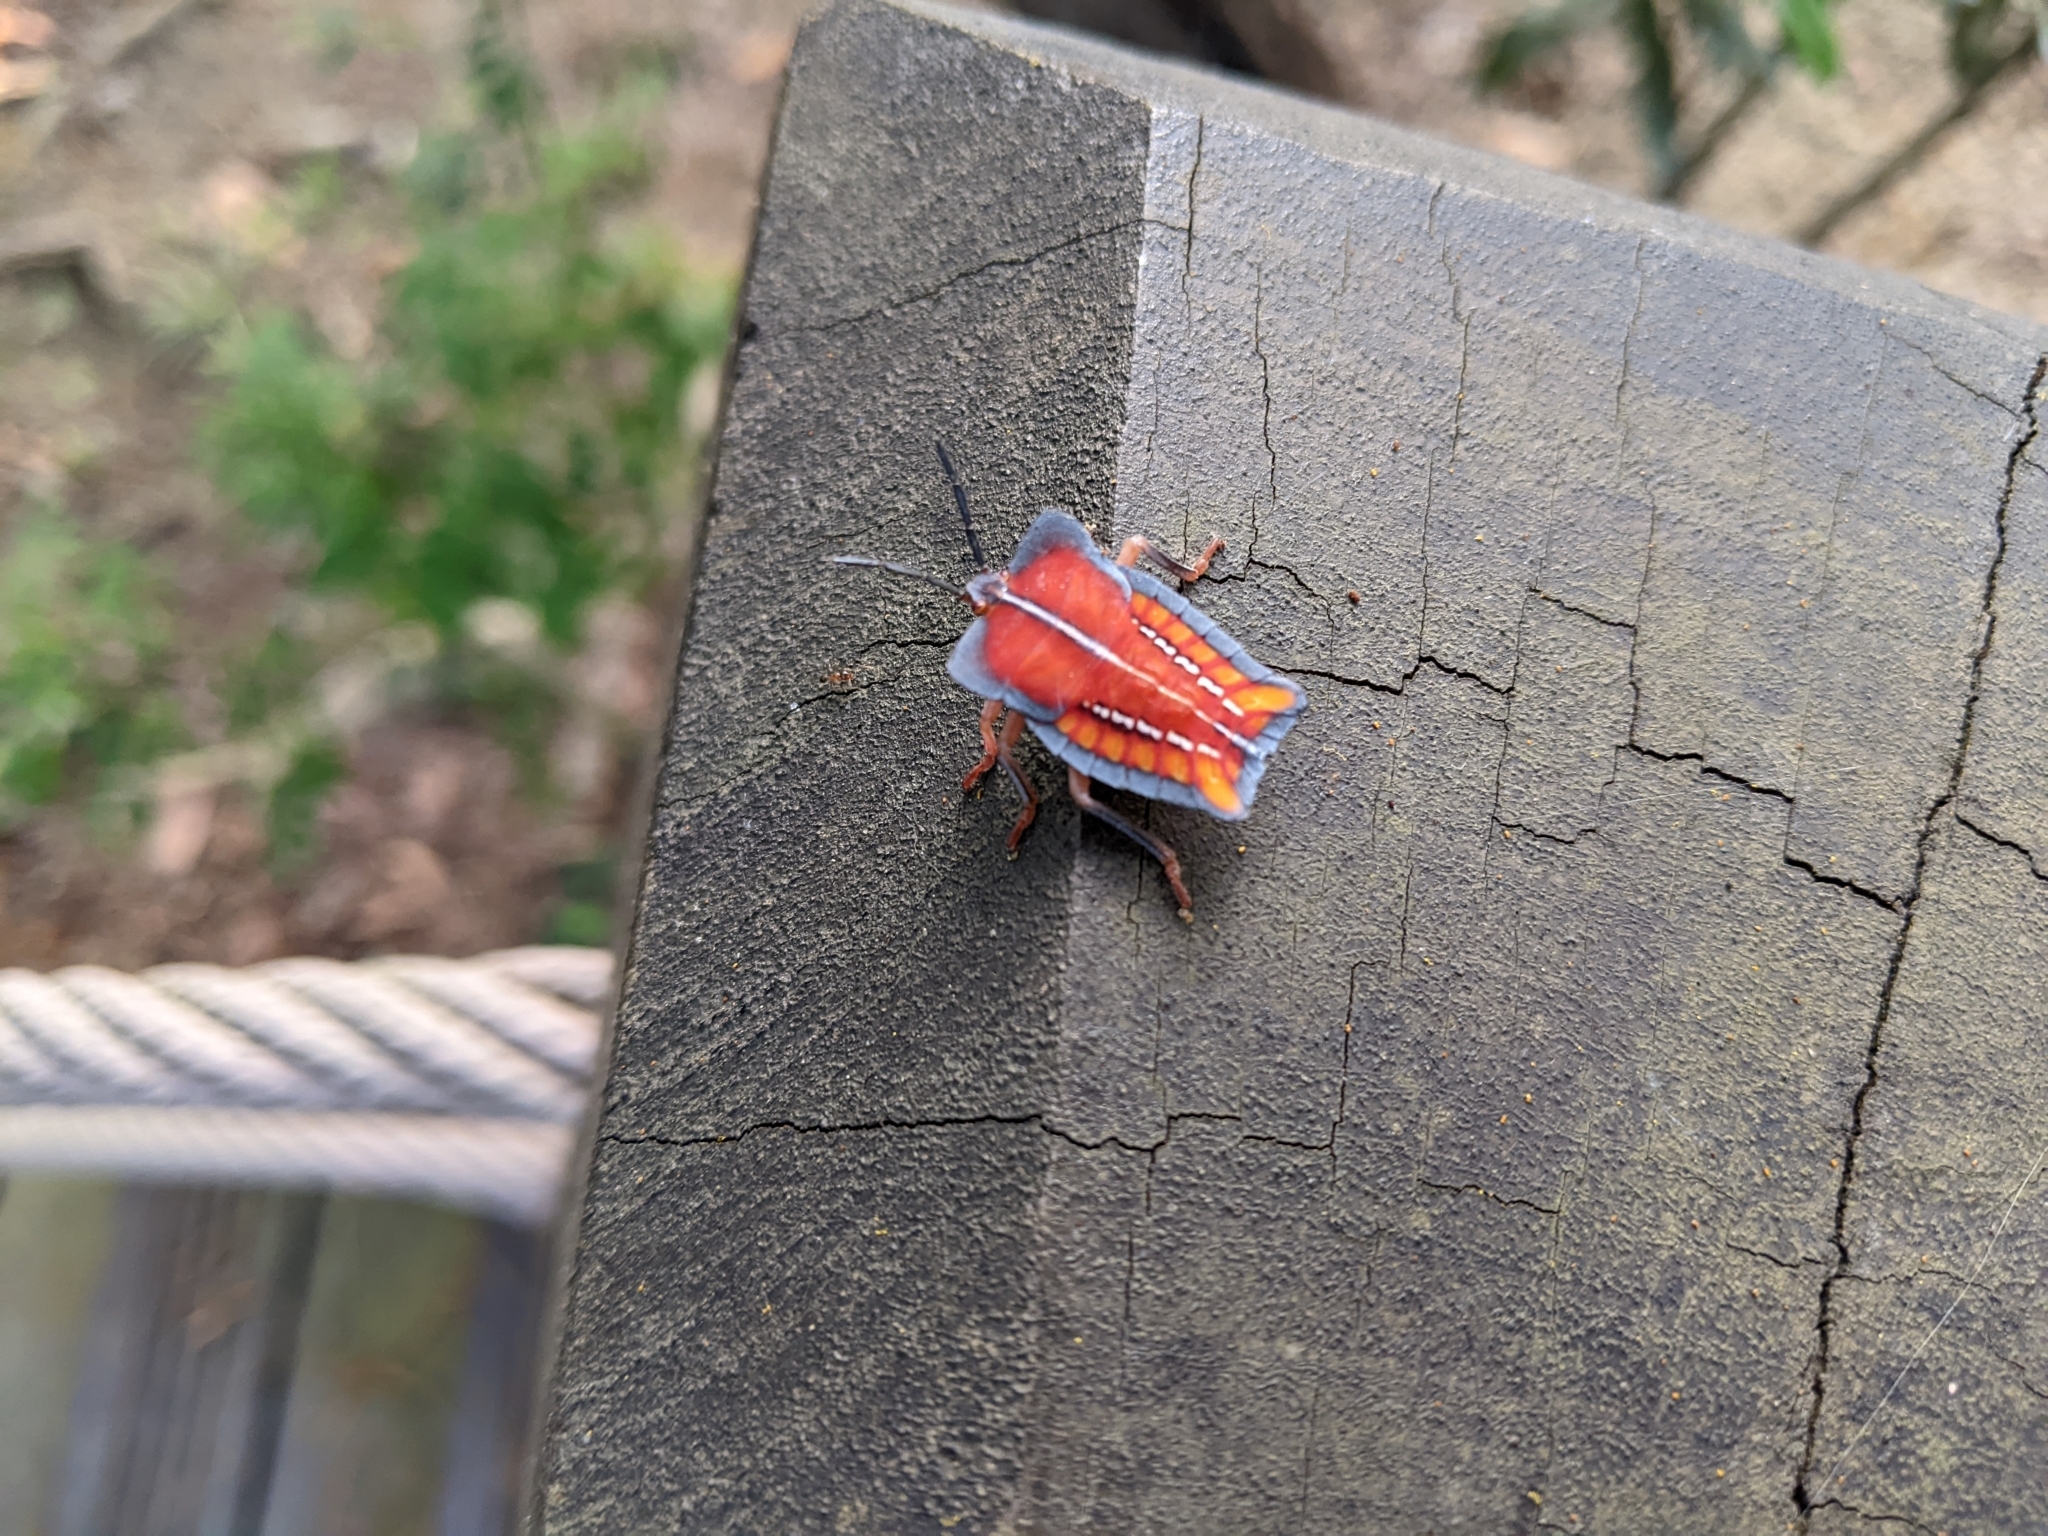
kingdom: Animalia
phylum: Arthropoda
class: Insecta
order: Hemiptera
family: Tessaratomidae
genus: Tessaratoma
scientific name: Tessaratoma papillosa
